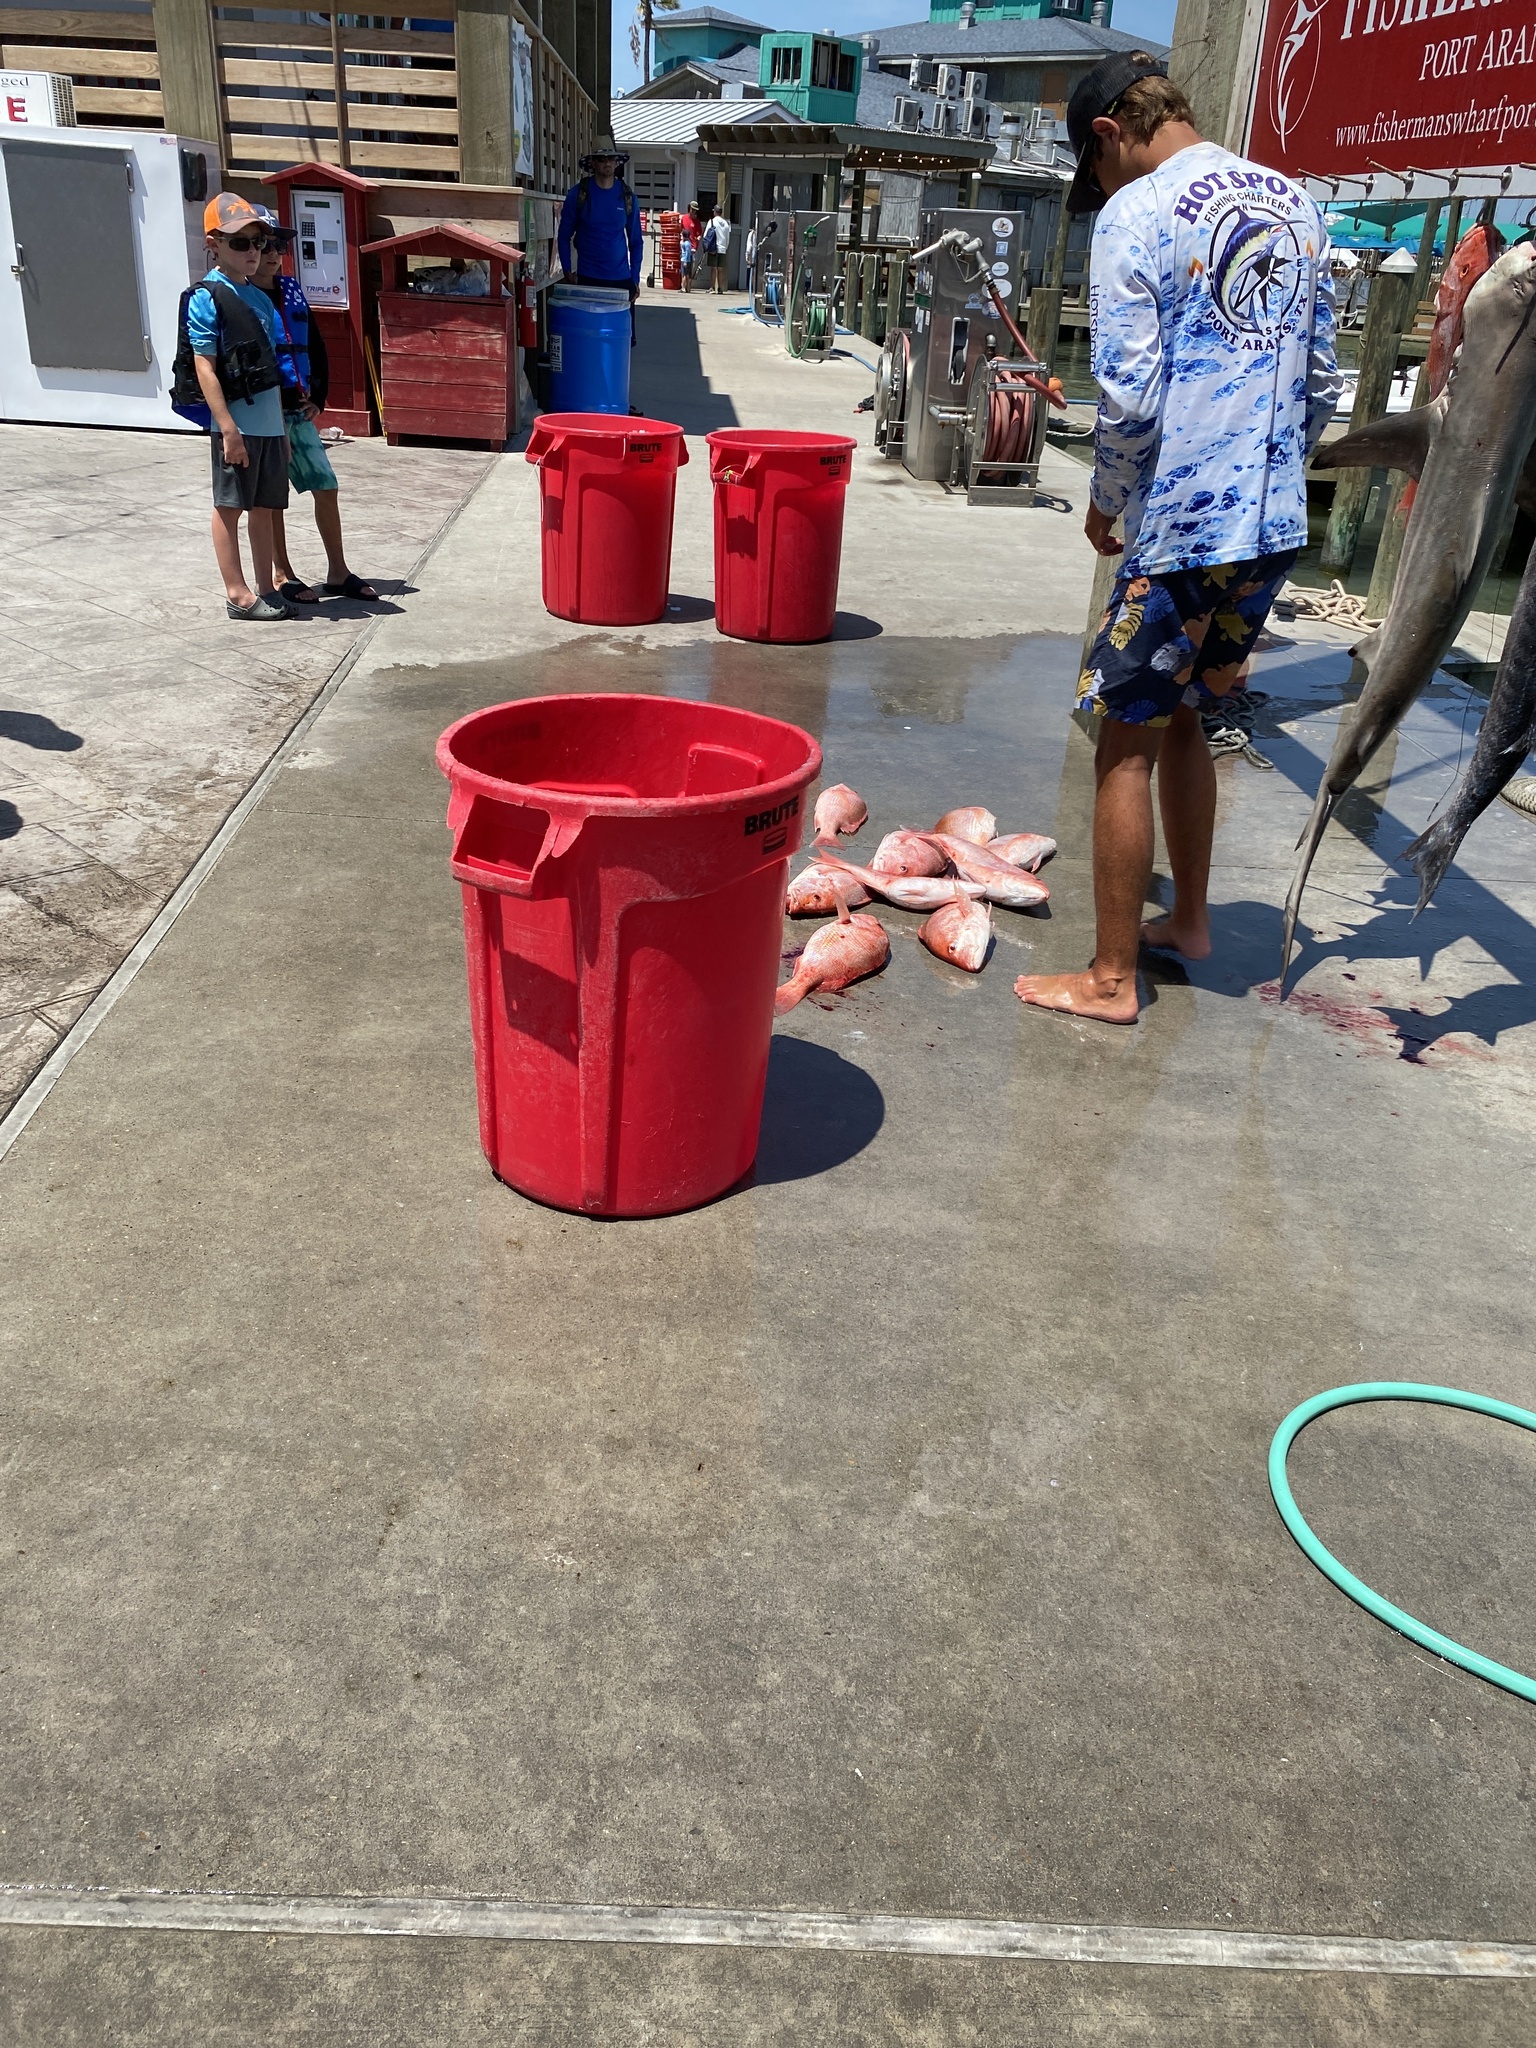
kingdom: Animalia
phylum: Chordata
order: Perciformes
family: Lutjanidae
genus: Lutjanus
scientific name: Lutjanus campechanus
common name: Red snapper
